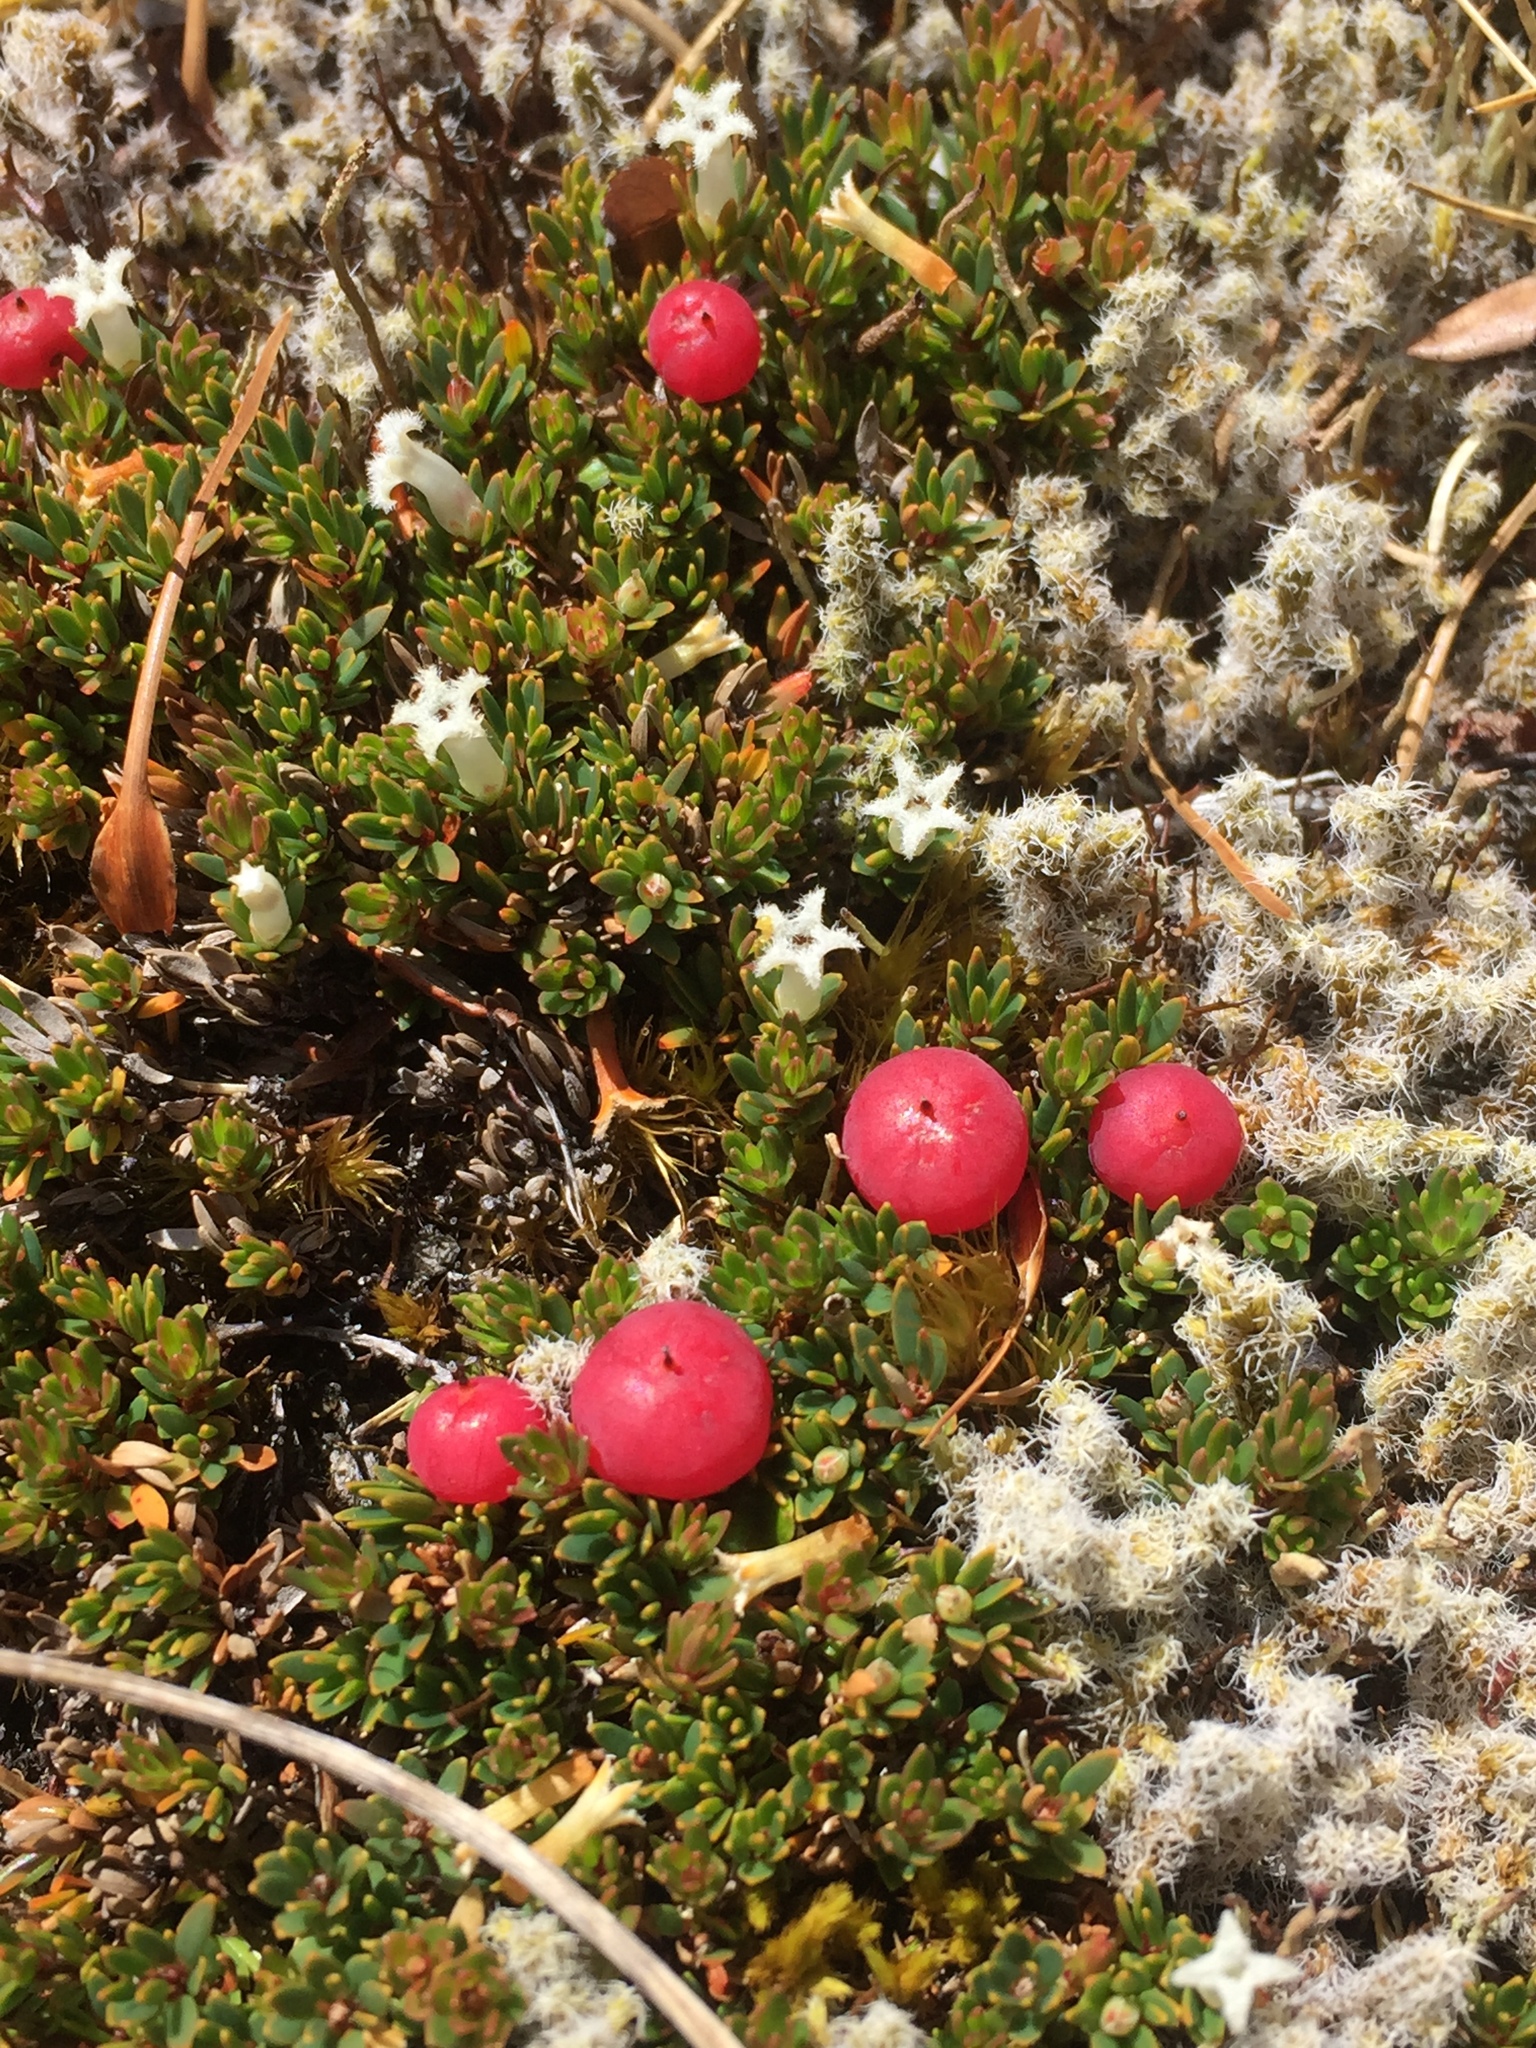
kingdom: Plantae
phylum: Tracheophyta
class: Magnoliopsida
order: Ericales
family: Ericaceae
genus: Pentachondra
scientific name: Pentachondra pumila
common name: Carpet-heath
